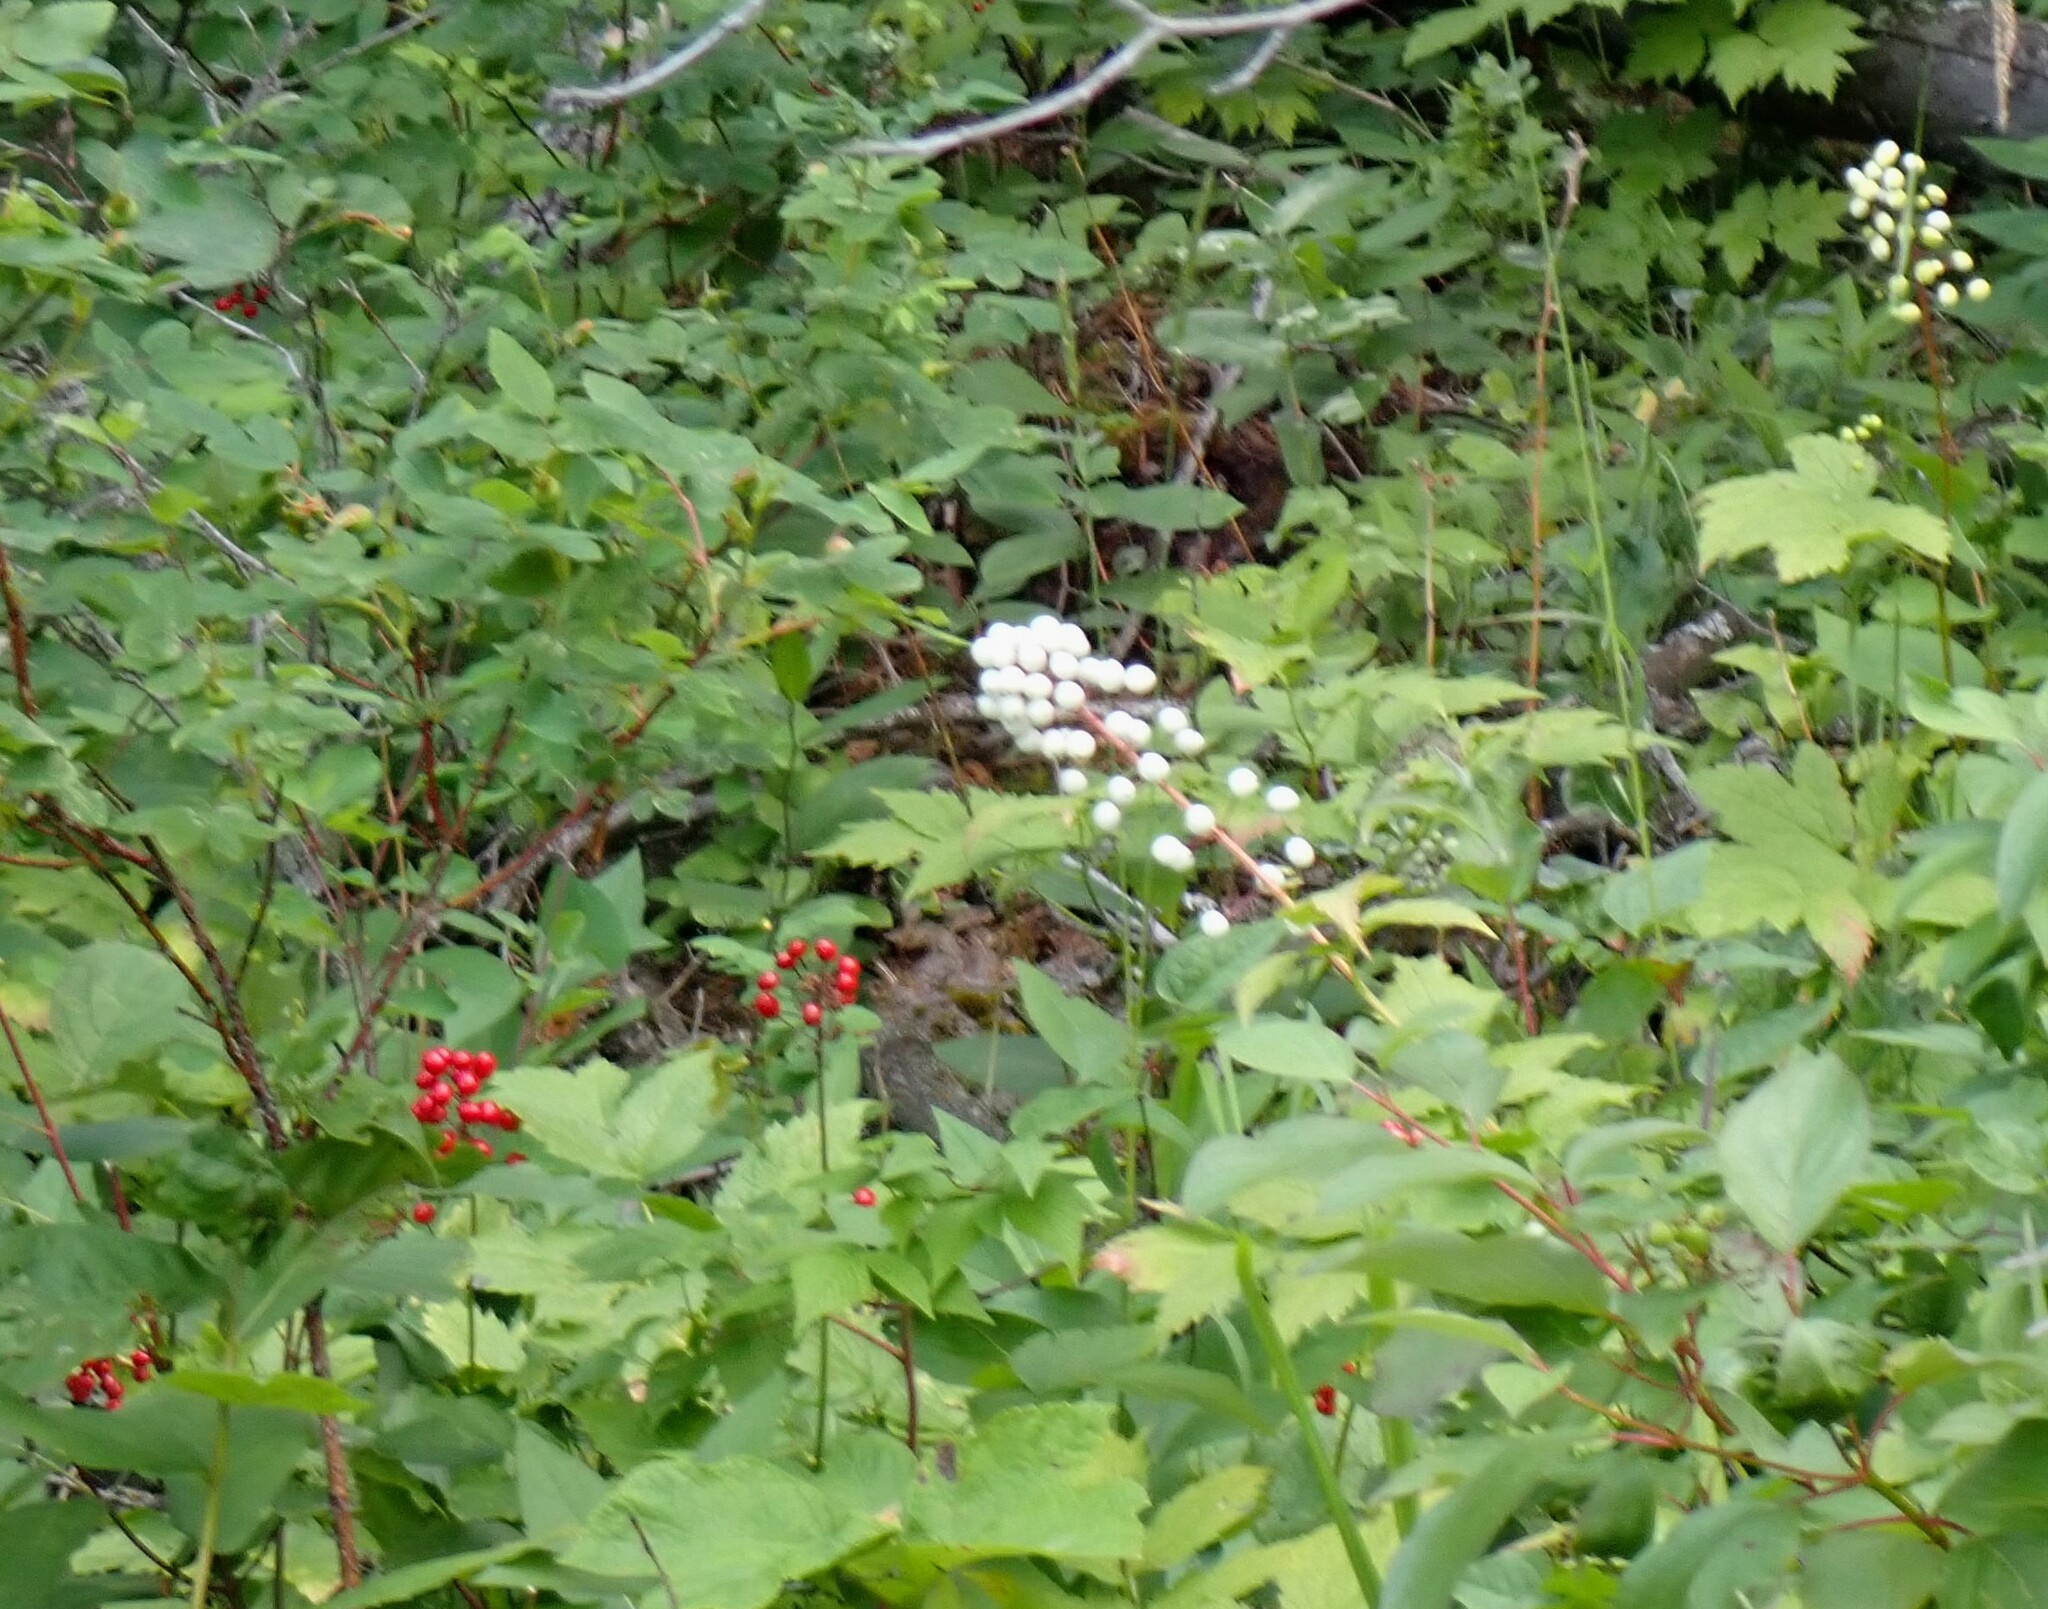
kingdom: Plantae
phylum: Tracheophyta
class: Magnoliopsida
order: Ranunculales
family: Ranunculaceae
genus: Actaea
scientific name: Actaea rubra
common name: Red baneberry
